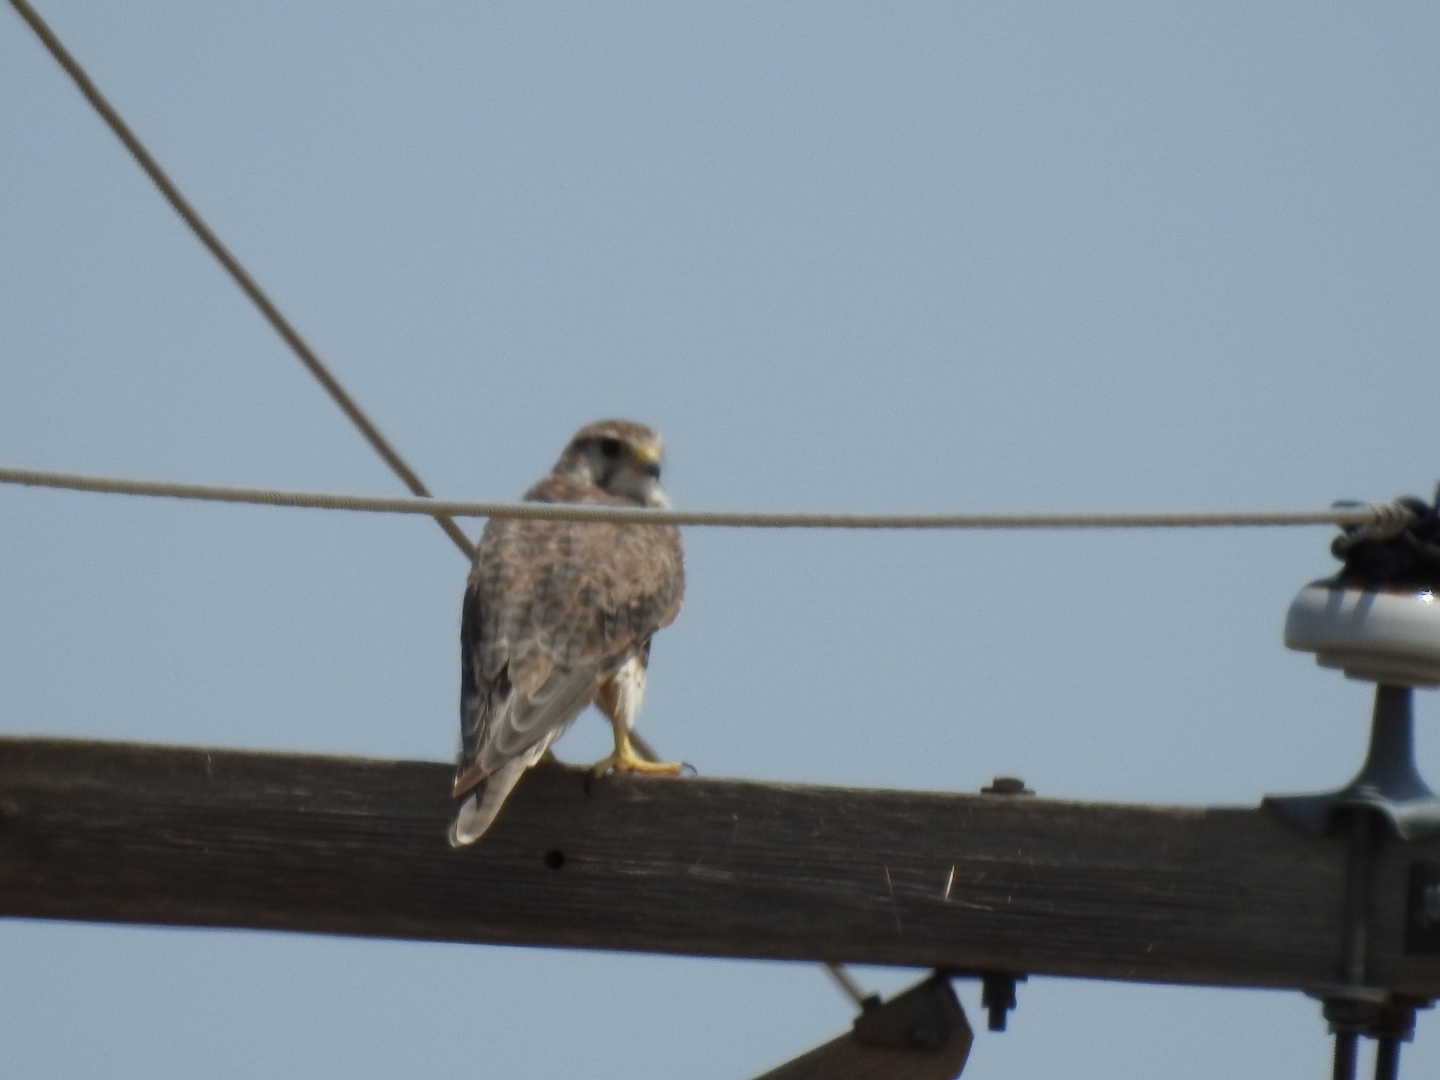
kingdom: Animalia
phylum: Chordata
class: Aves
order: Falconiformes
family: Falconidae
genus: Falco
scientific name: Falco mexicanus
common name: Prairie falcon
